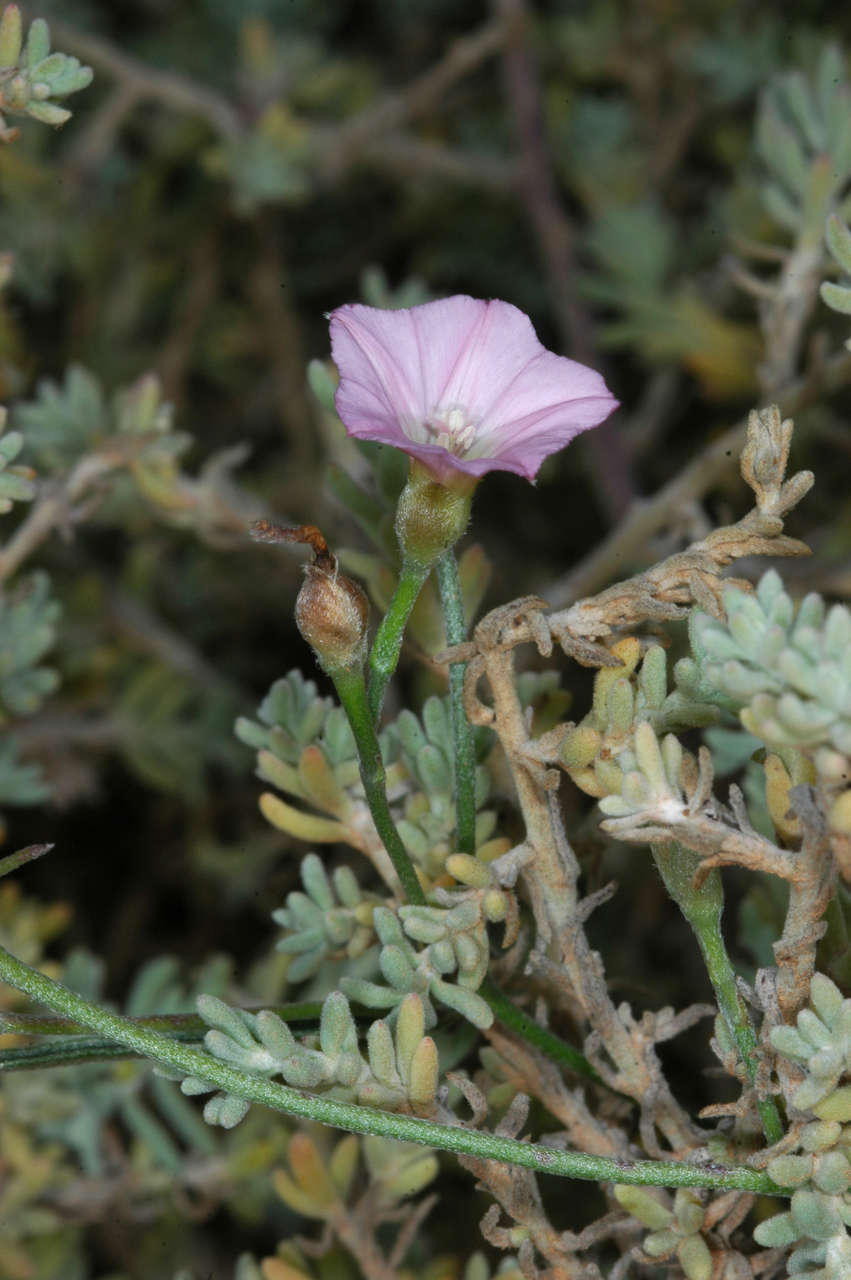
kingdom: Plantae
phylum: Tracheophyta
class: Magnoliopsida
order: Solanales
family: Convolvulaceae
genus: Convolvulus
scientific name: Convolvulus remotus
